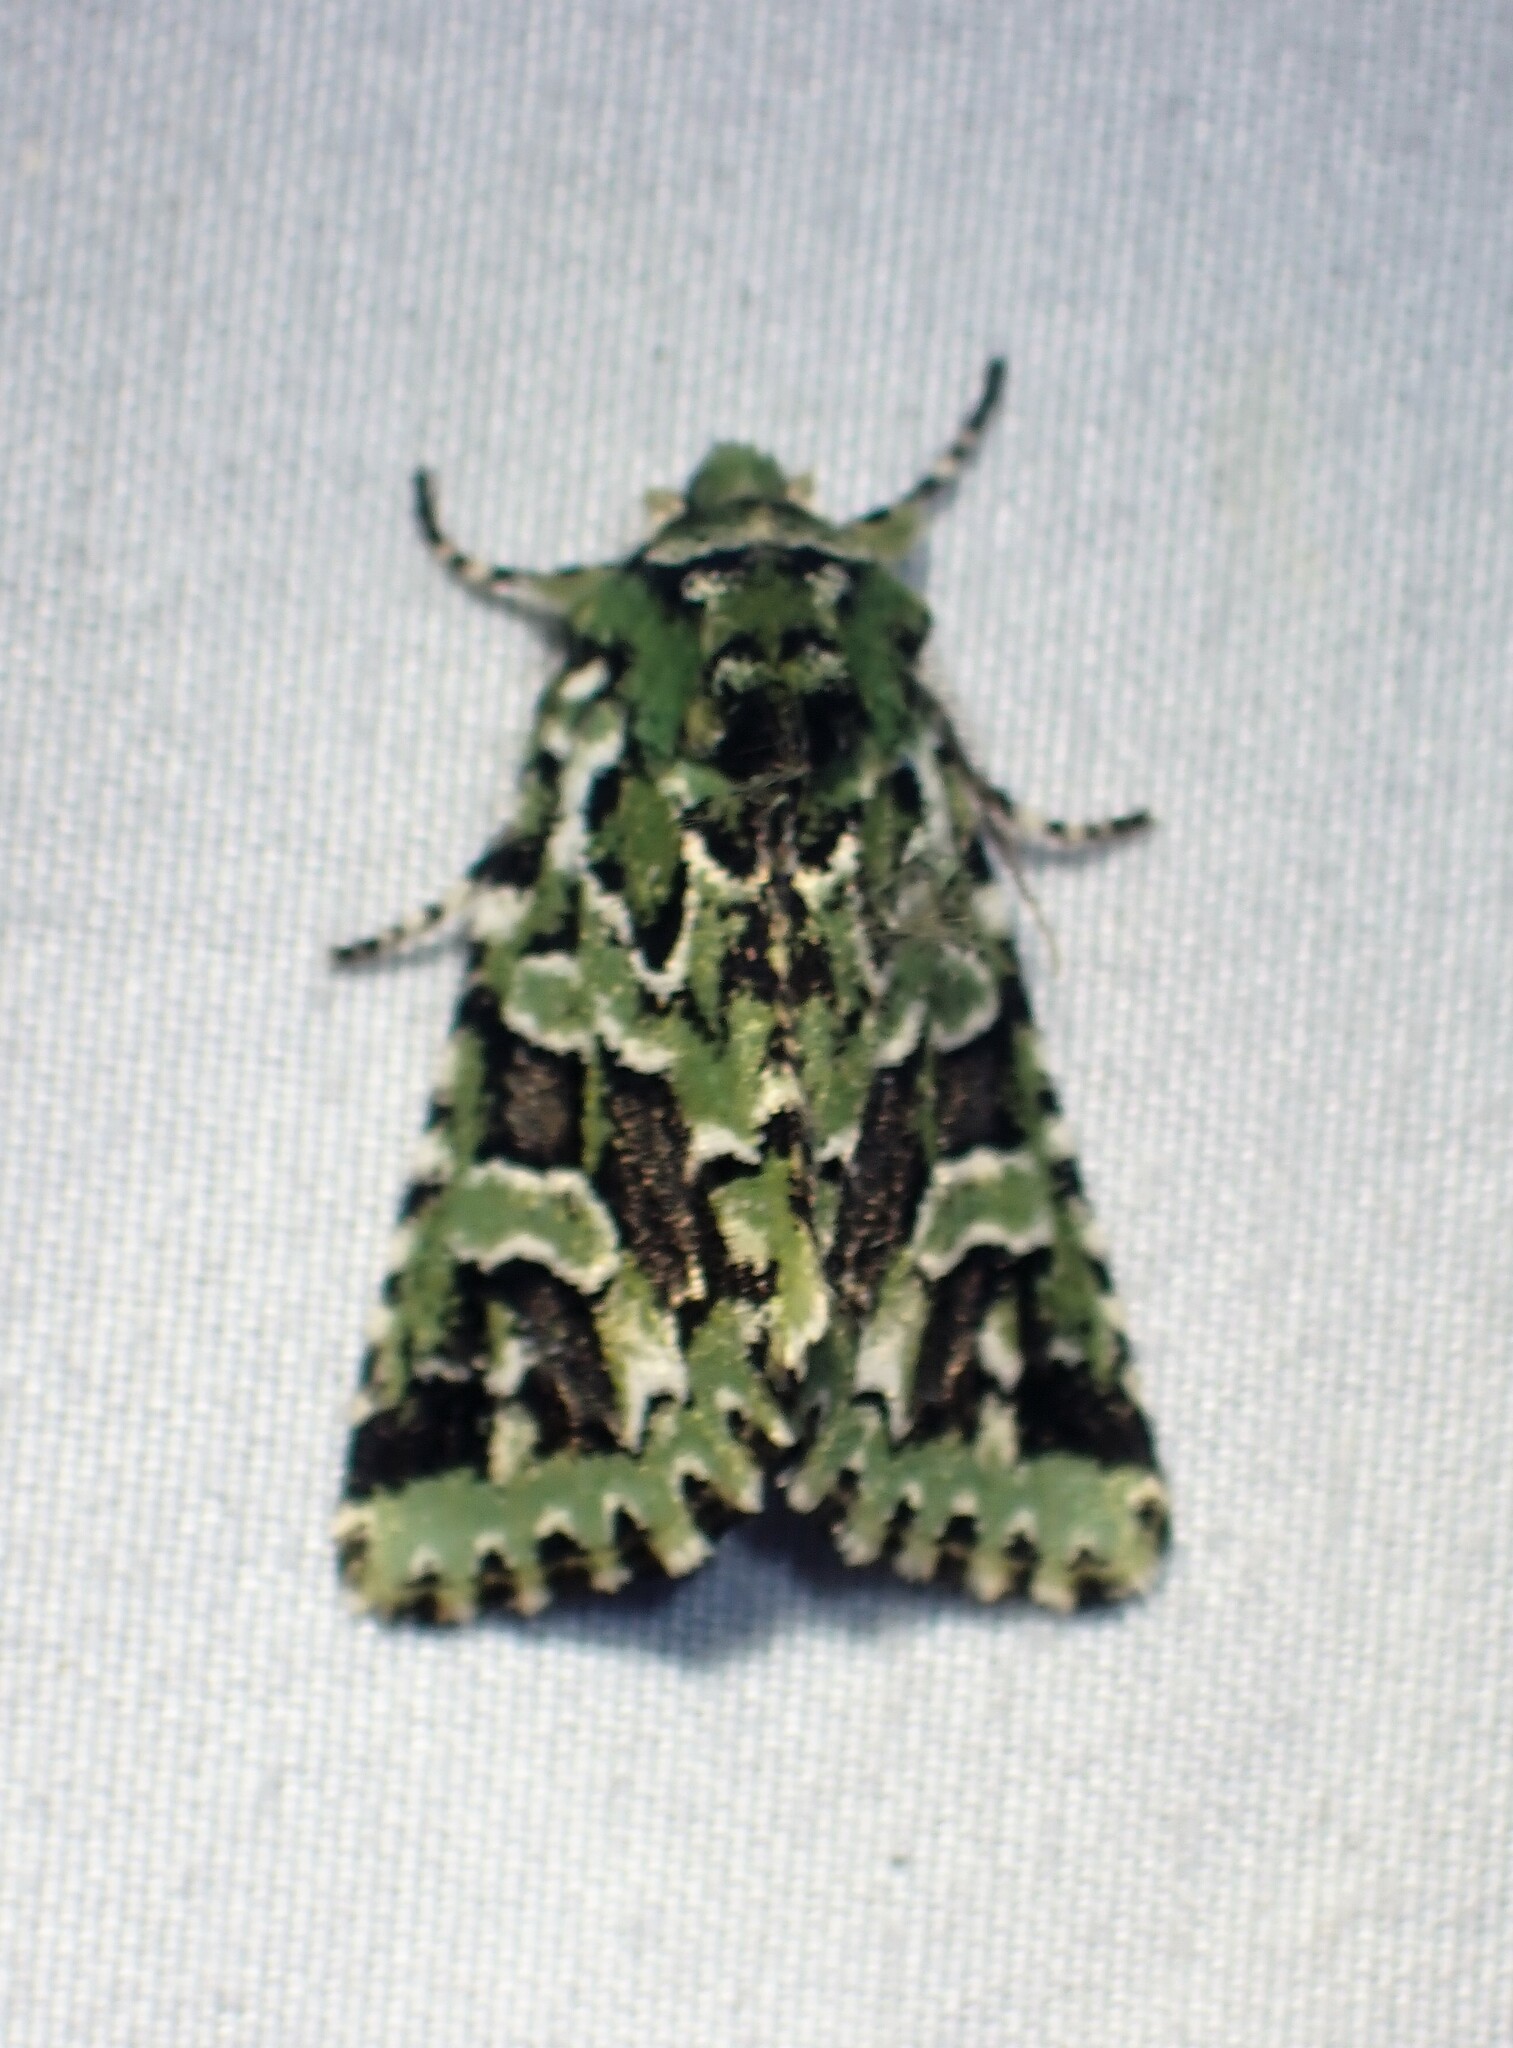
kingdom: Animalia
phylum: Arthropoda
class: Insecta
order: Lepidoptera
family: Noctuidae
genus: Feralia
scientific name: Feralia comstocki
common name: Comstock's sallow
